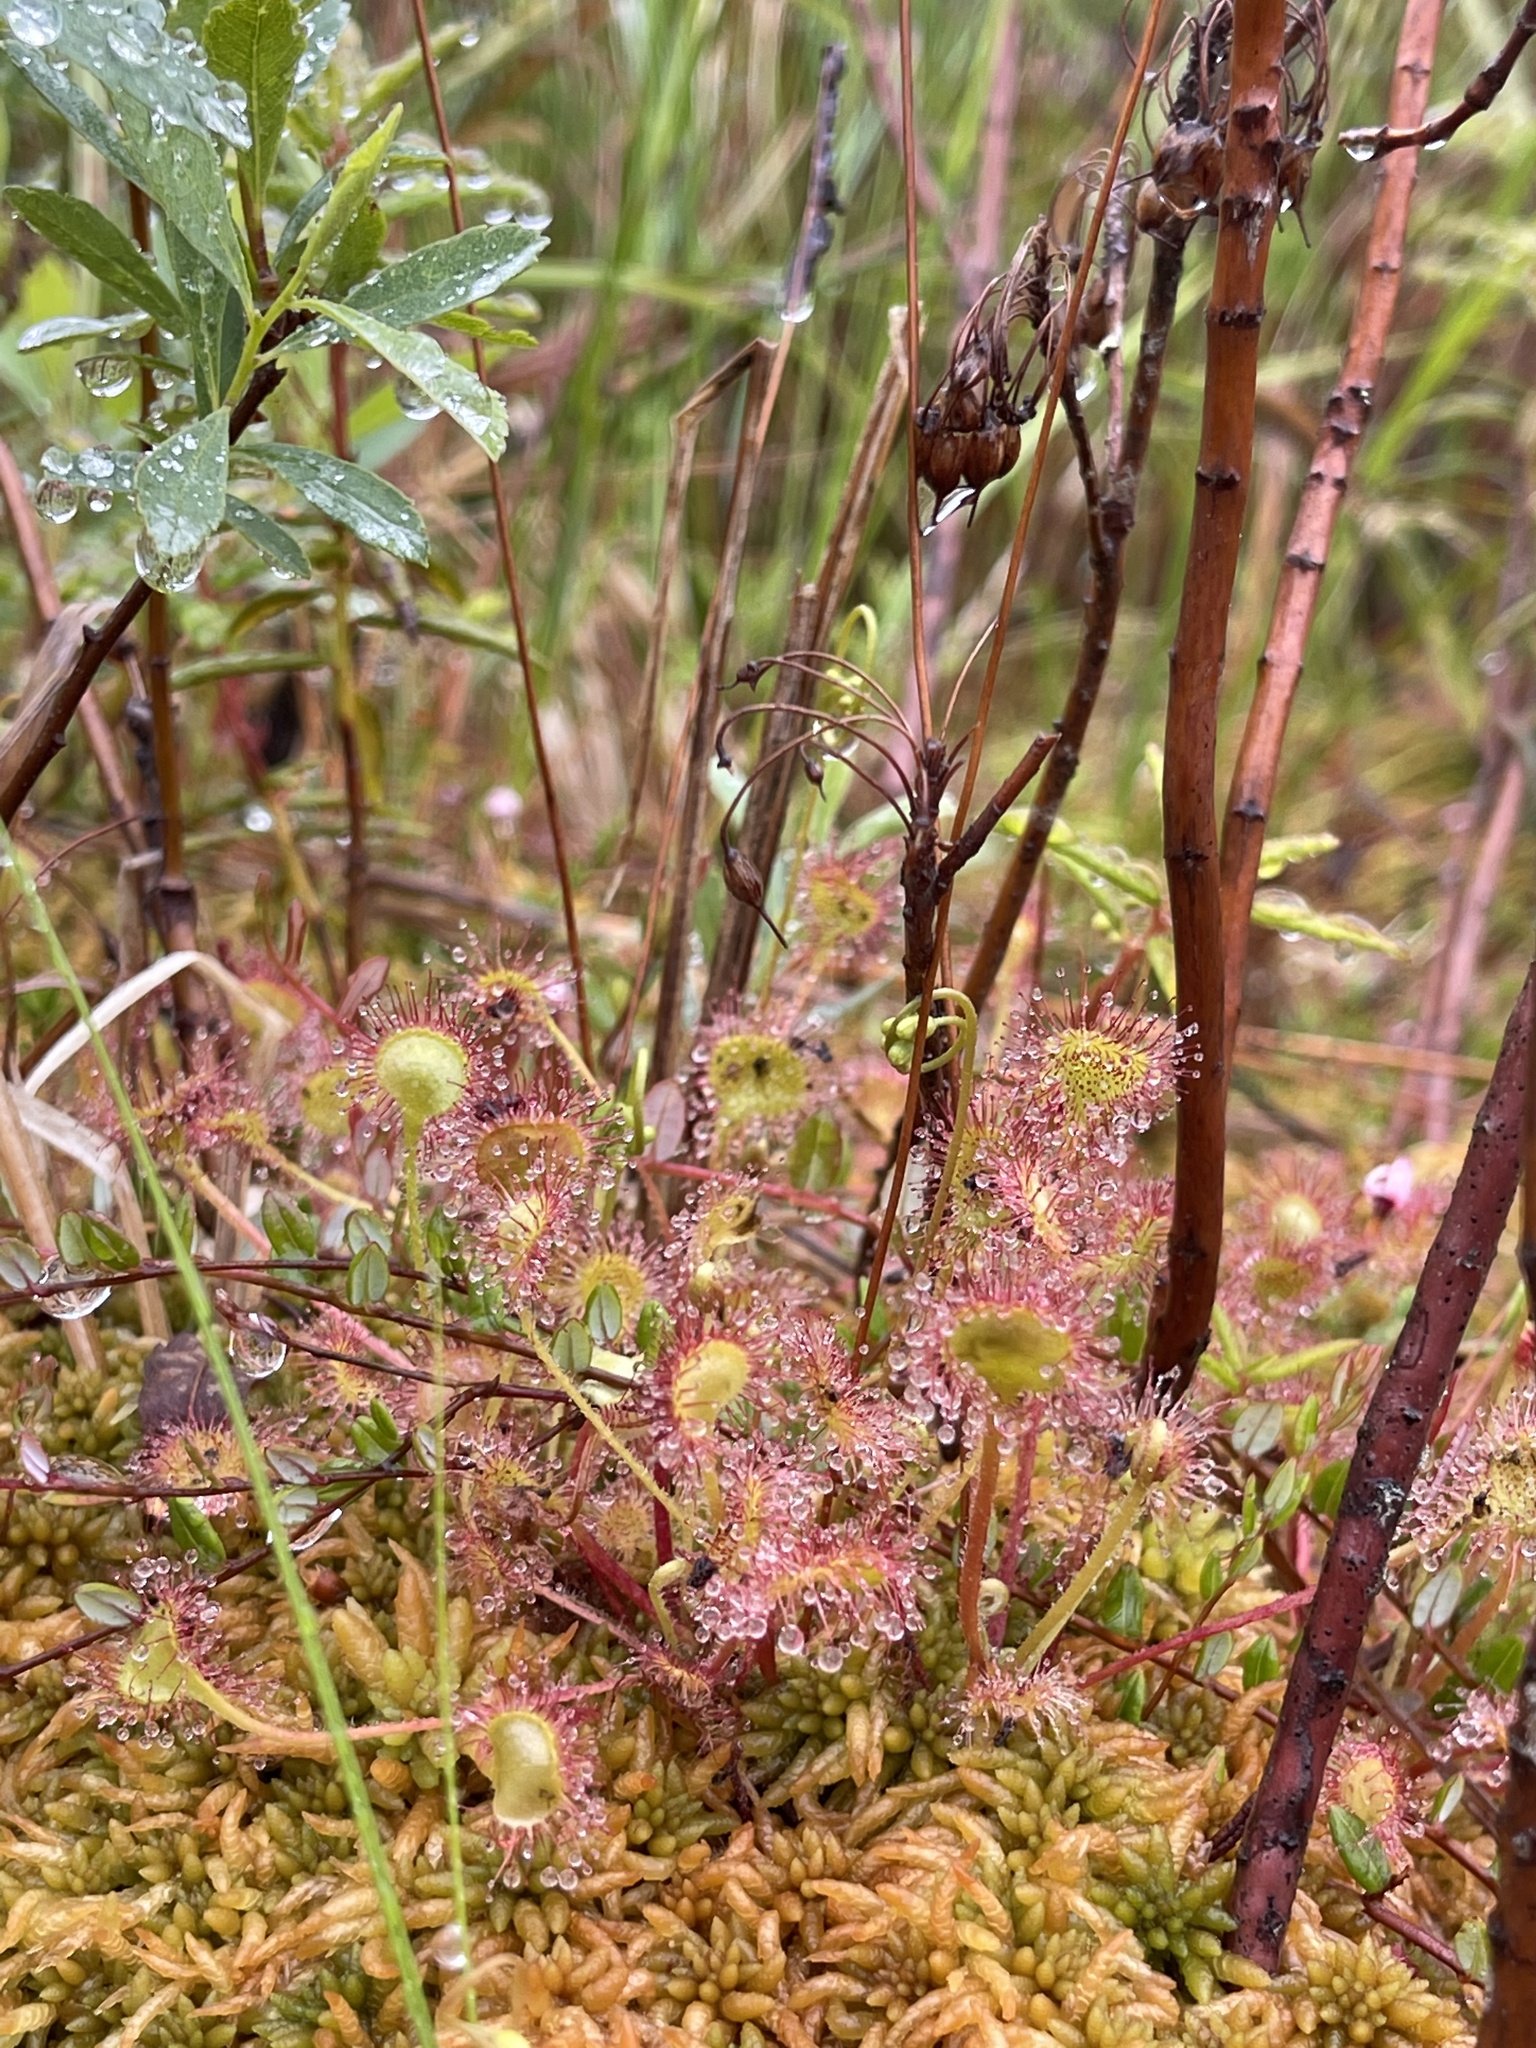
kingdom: Plantae
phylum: Tracheophyta
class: Magnoliopsida
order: Caryophyllales
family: Droseraceae
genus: Drosera
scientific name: Drosera rotundifolia
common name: Round-leaved sundew
